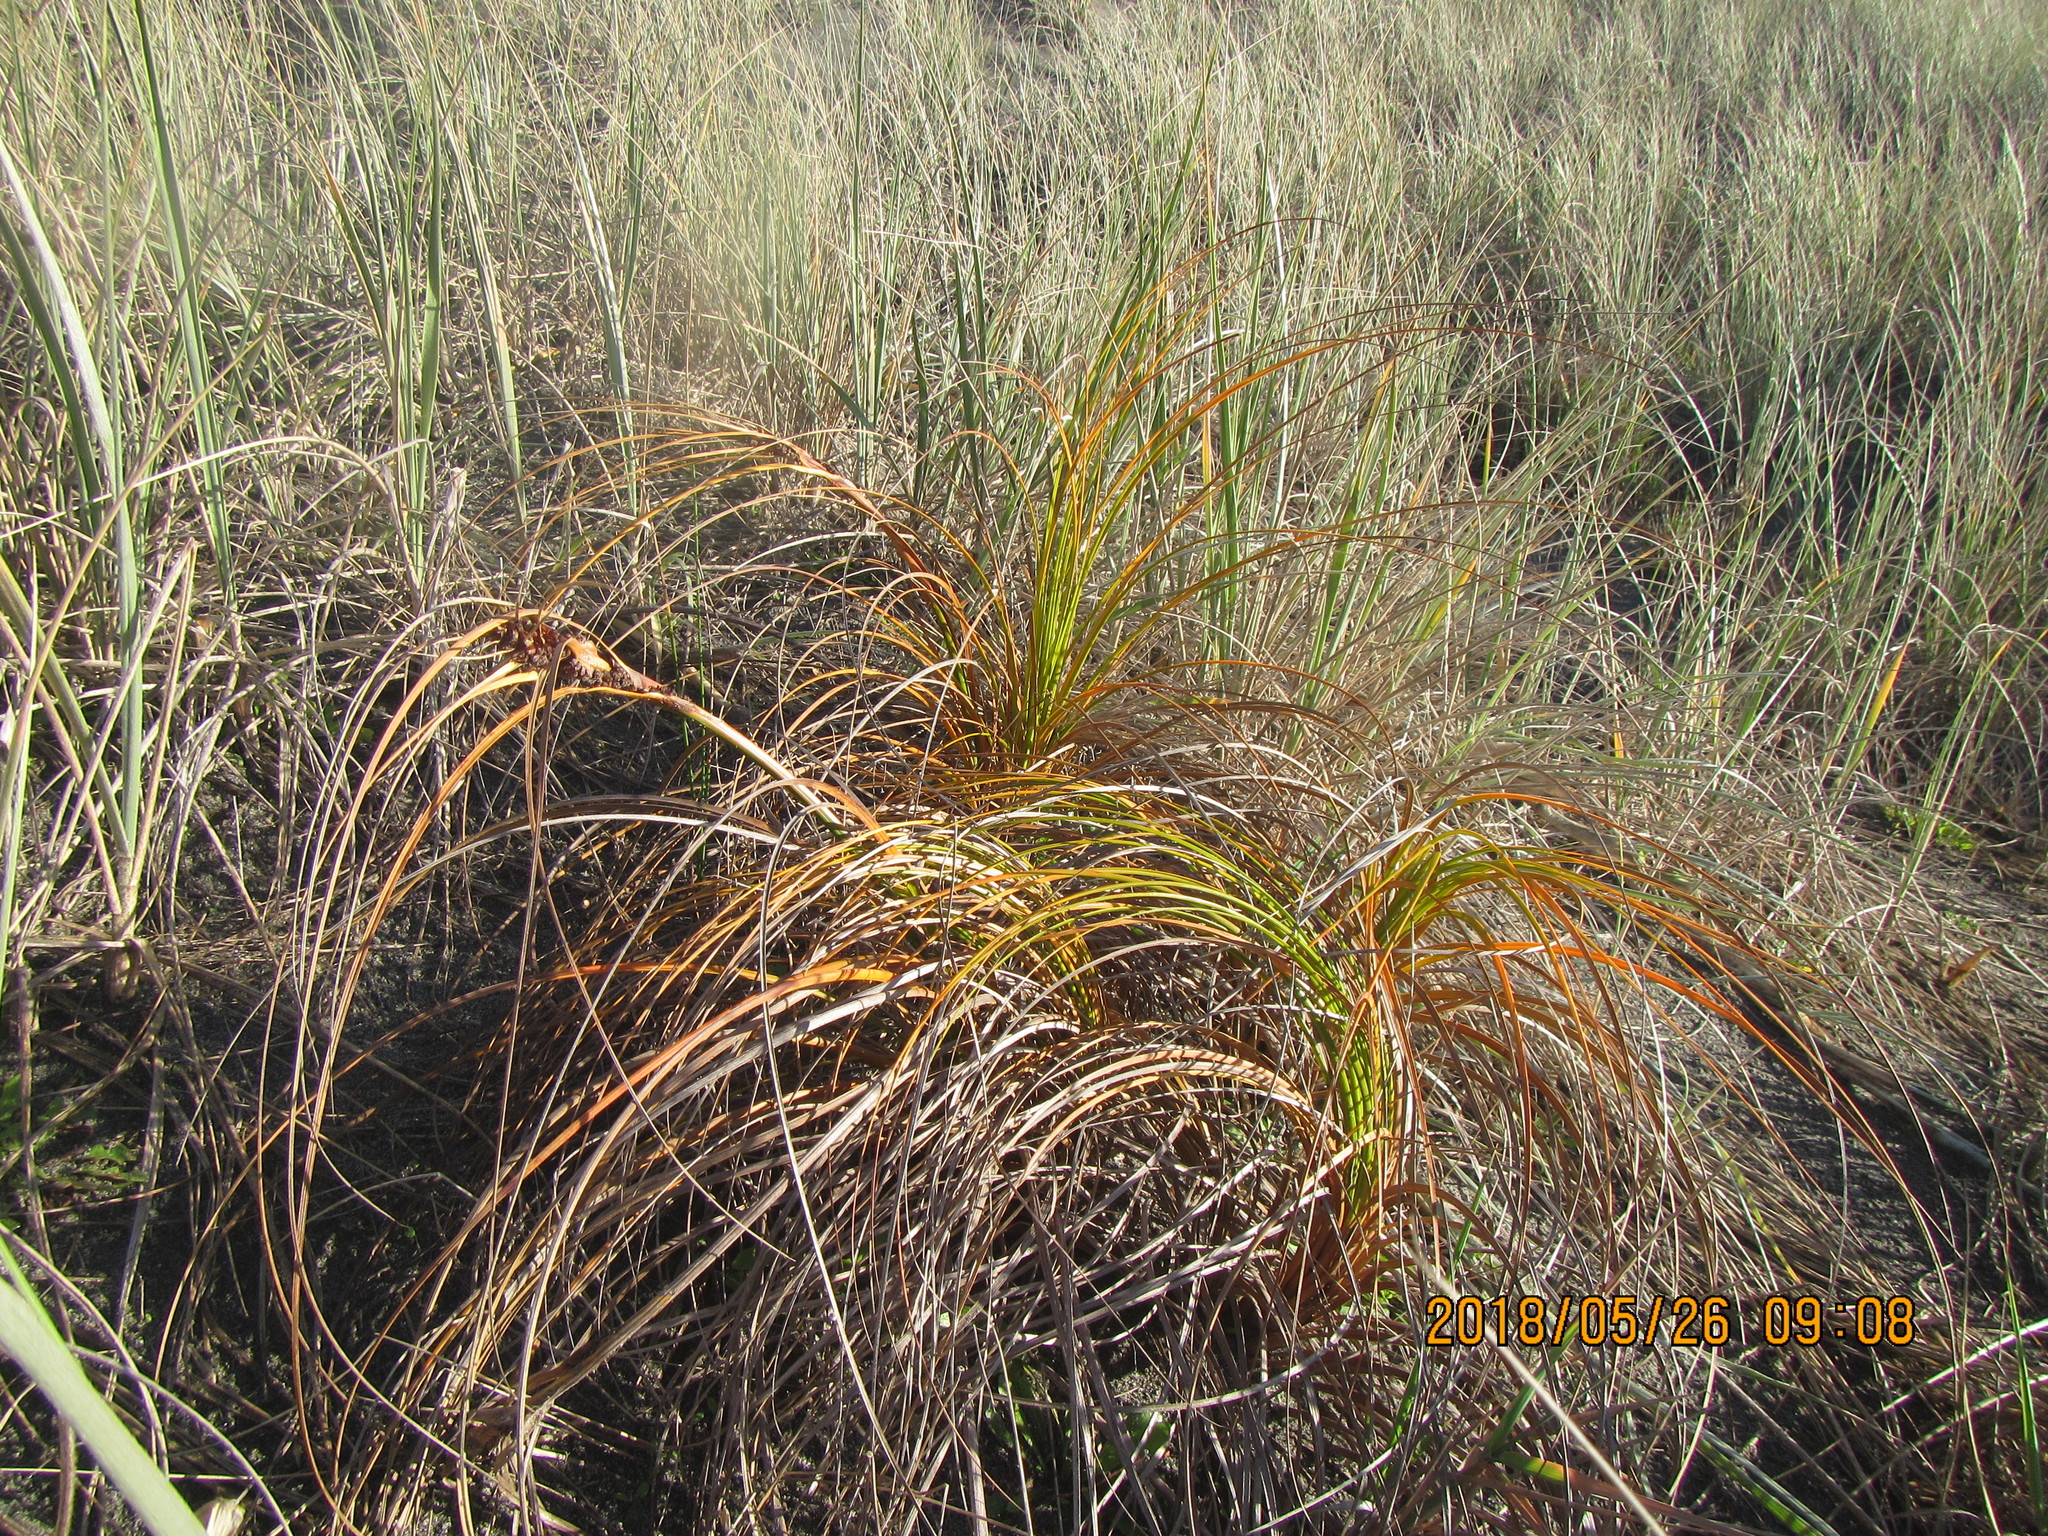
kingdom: Plantae
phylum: Tracheophyta
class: Liliopsida
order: Poales
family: Cyperaceae
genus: Ficinia
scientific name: Ficinia spiralis
